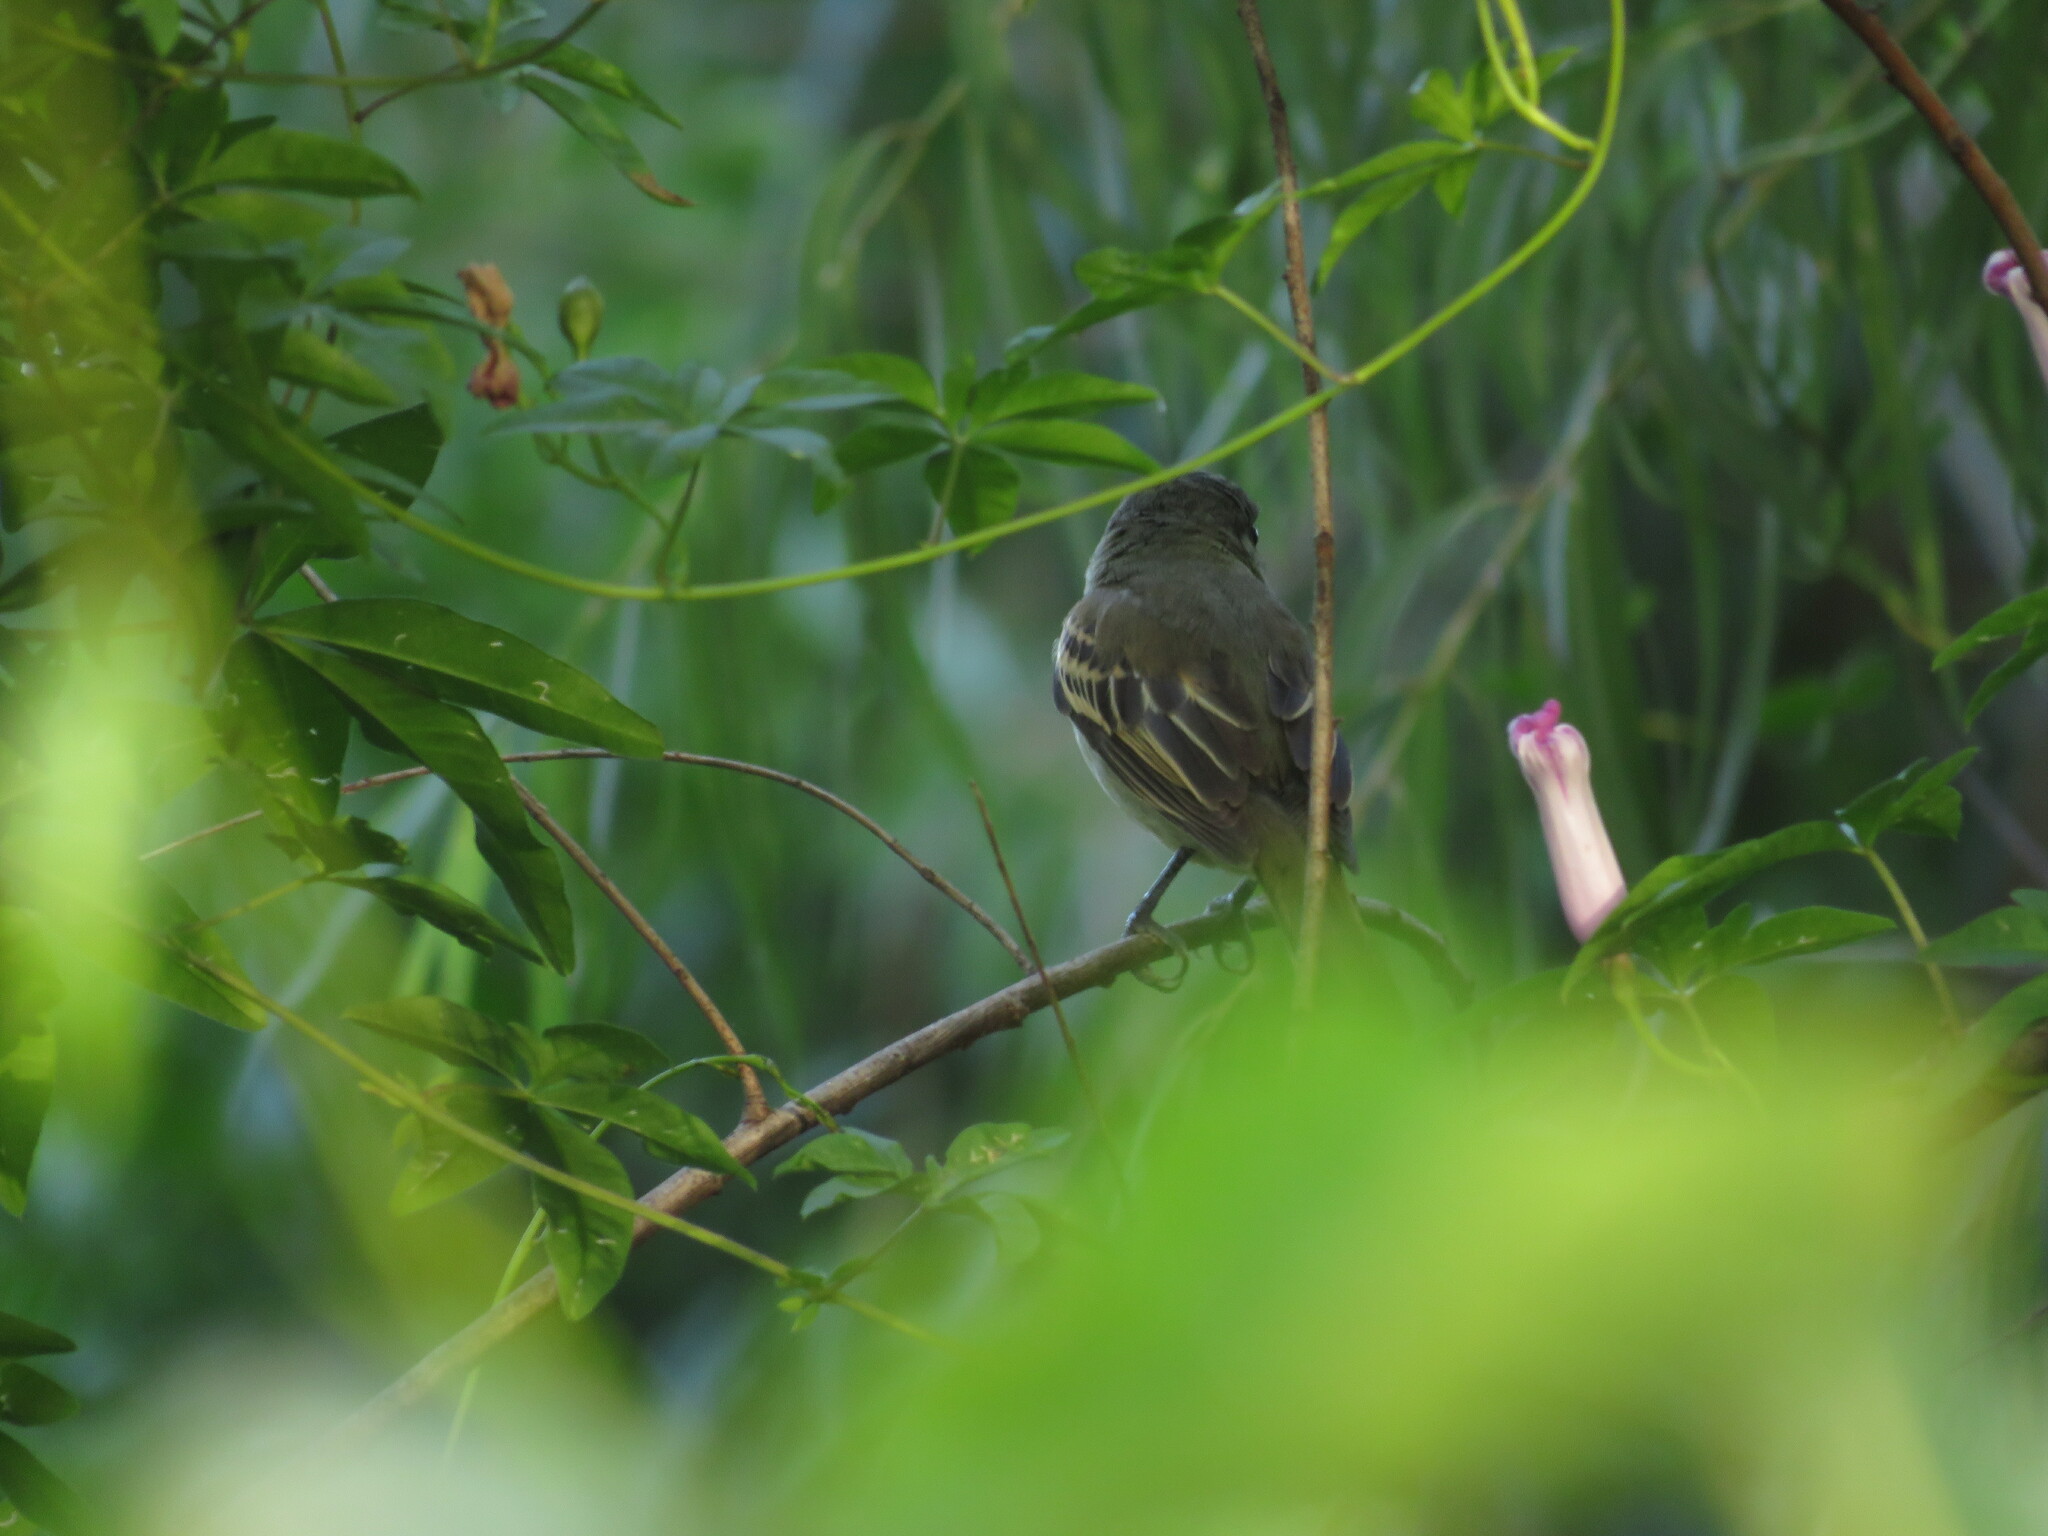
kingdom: Animalia
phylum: Chordata
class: Aves
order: Passeriformes
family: Cotingidae
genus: Pachyramphus
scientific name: Pachyramphus polychopterus
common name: White-winged becard
